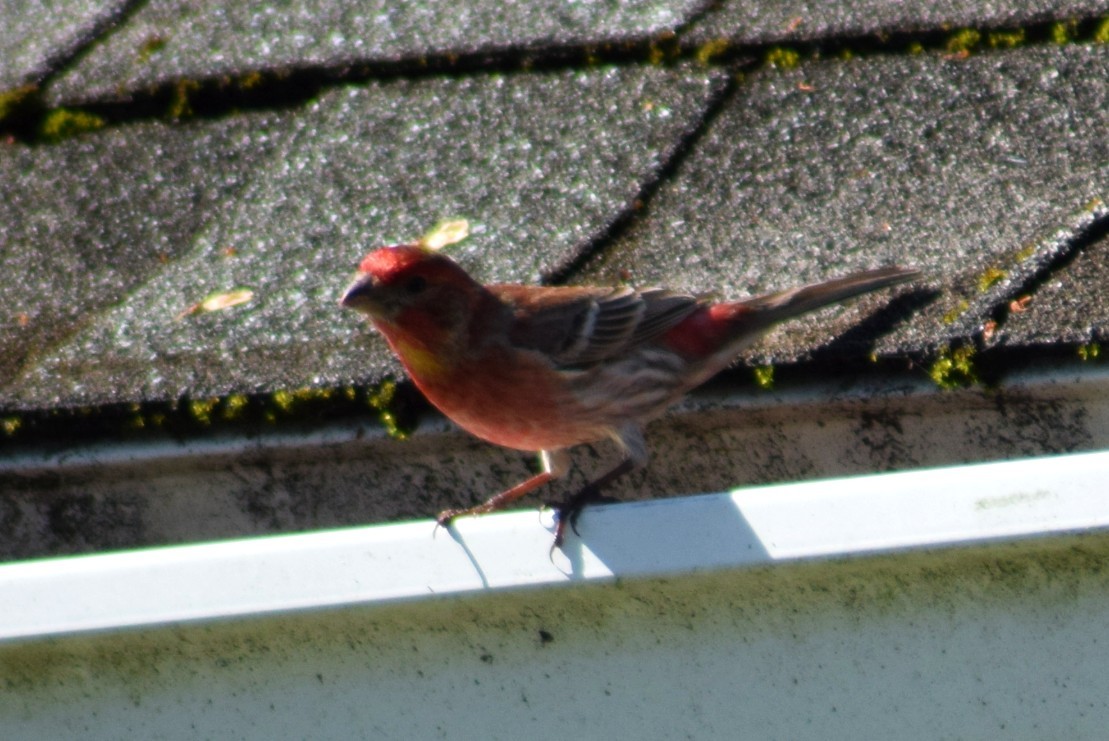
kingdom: Animalia
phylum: Chordata
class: Aves
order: Passeriformes
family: Fringillidae
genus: Haemorhous
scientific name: Haemorhous mexicanus
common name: House finch
